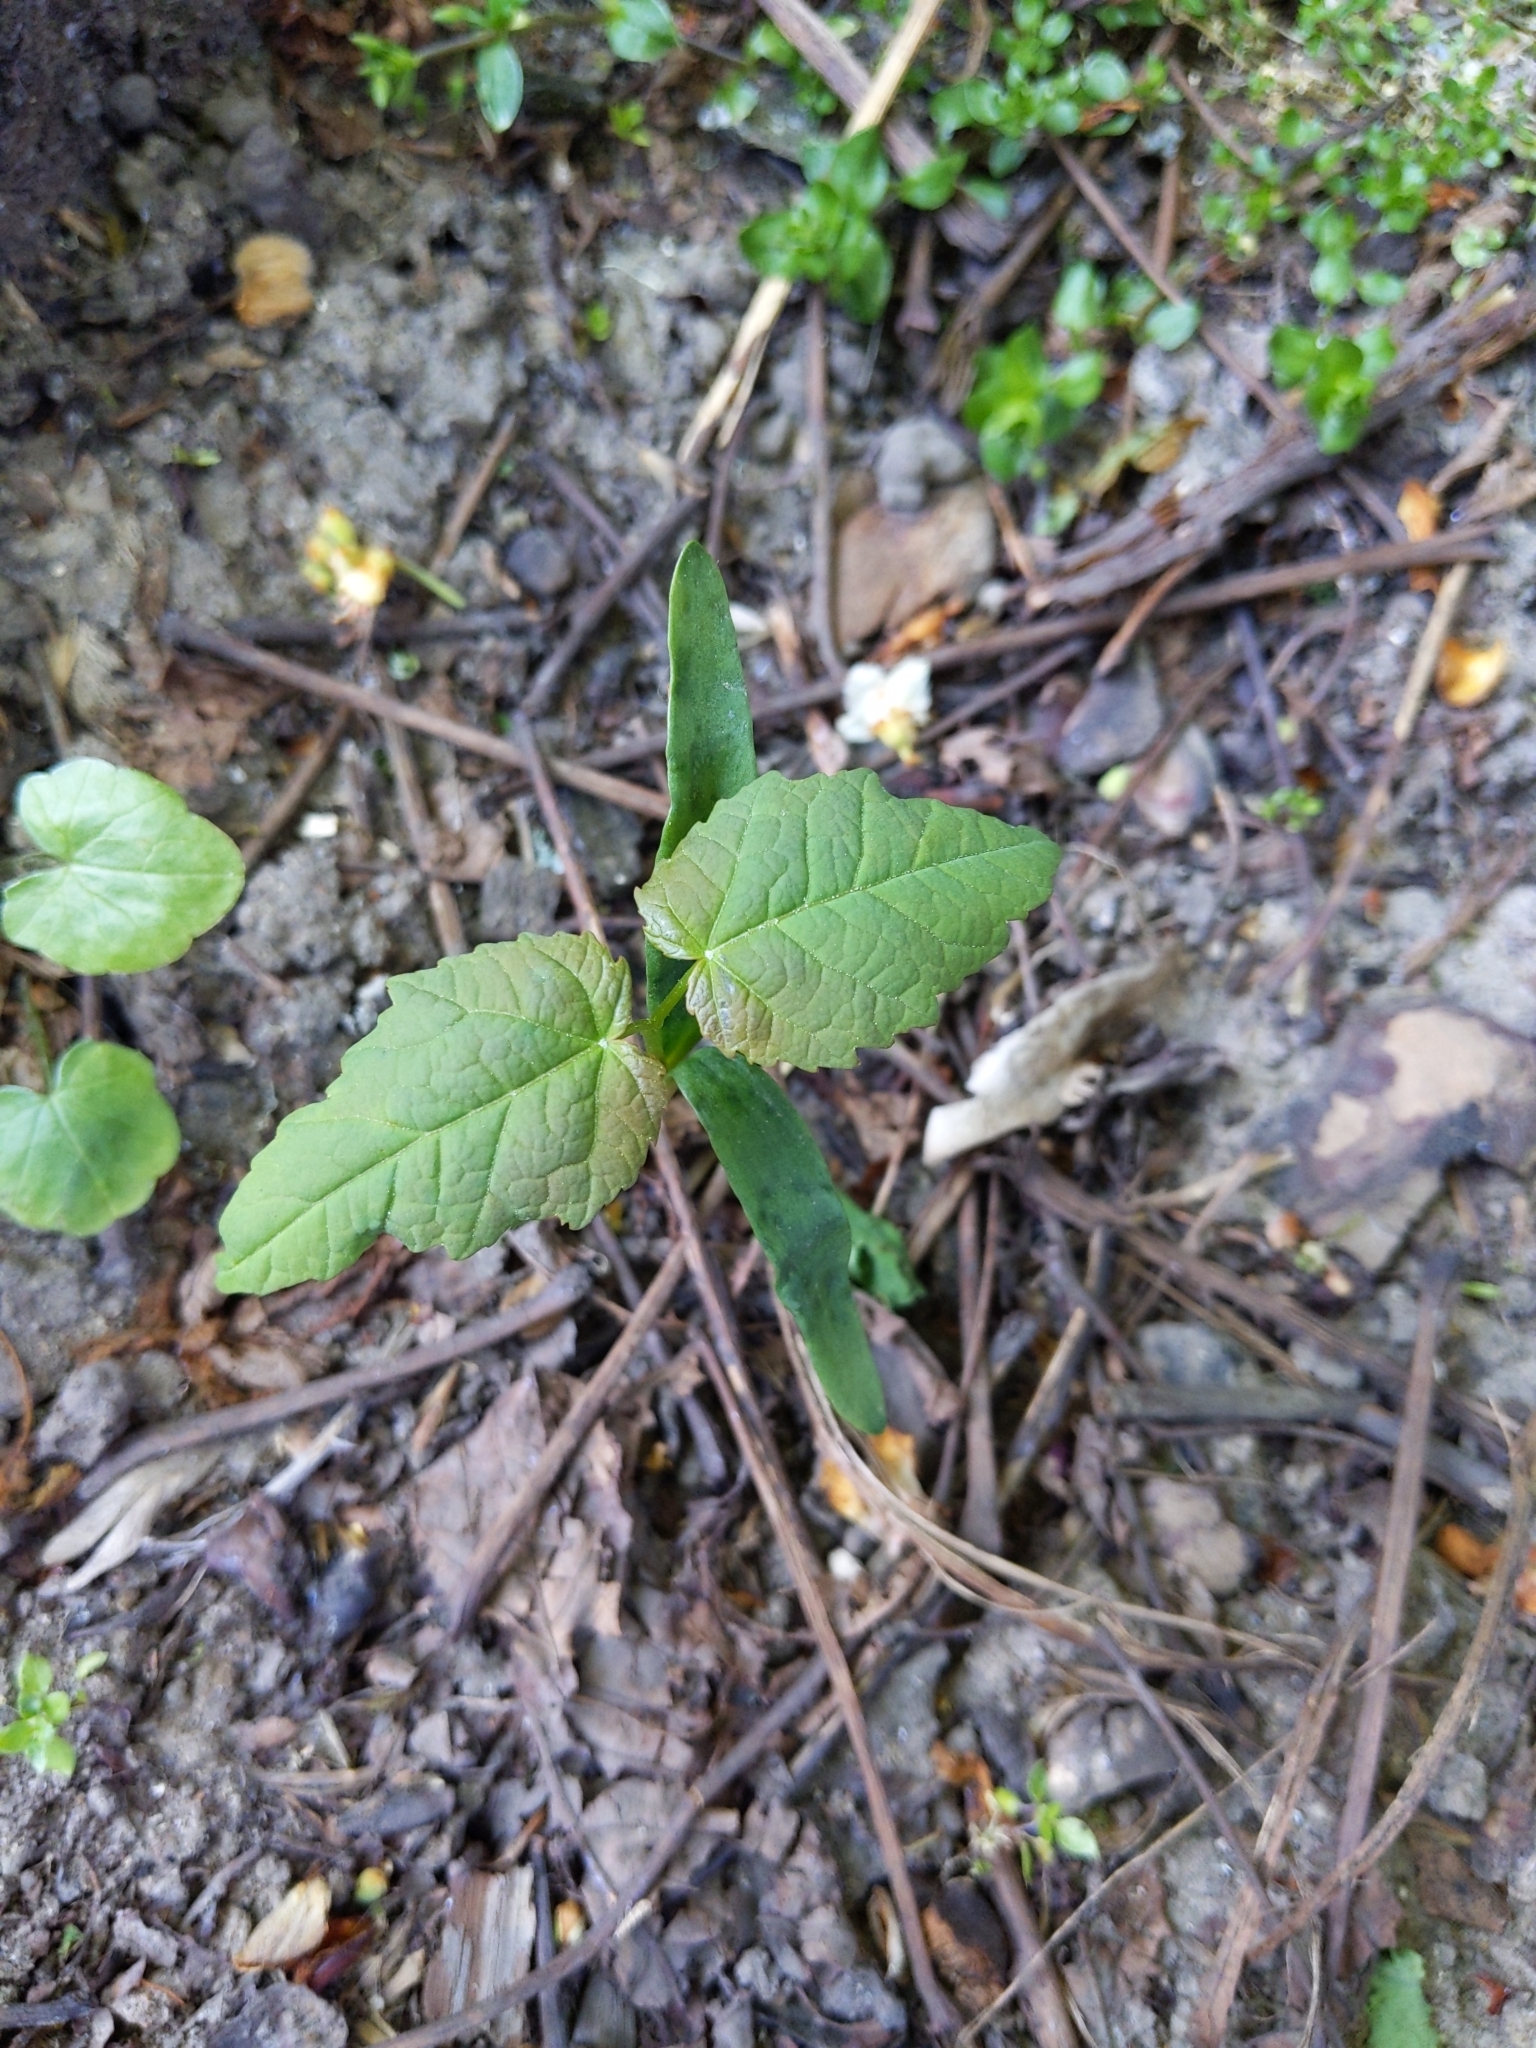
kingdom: Plantae
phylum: Tracheophyta
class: Magnoliopsida
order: Sapindales
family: Sapindaceae
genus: Acer
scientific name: Acer pseudoplatanus
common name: Sycamore
